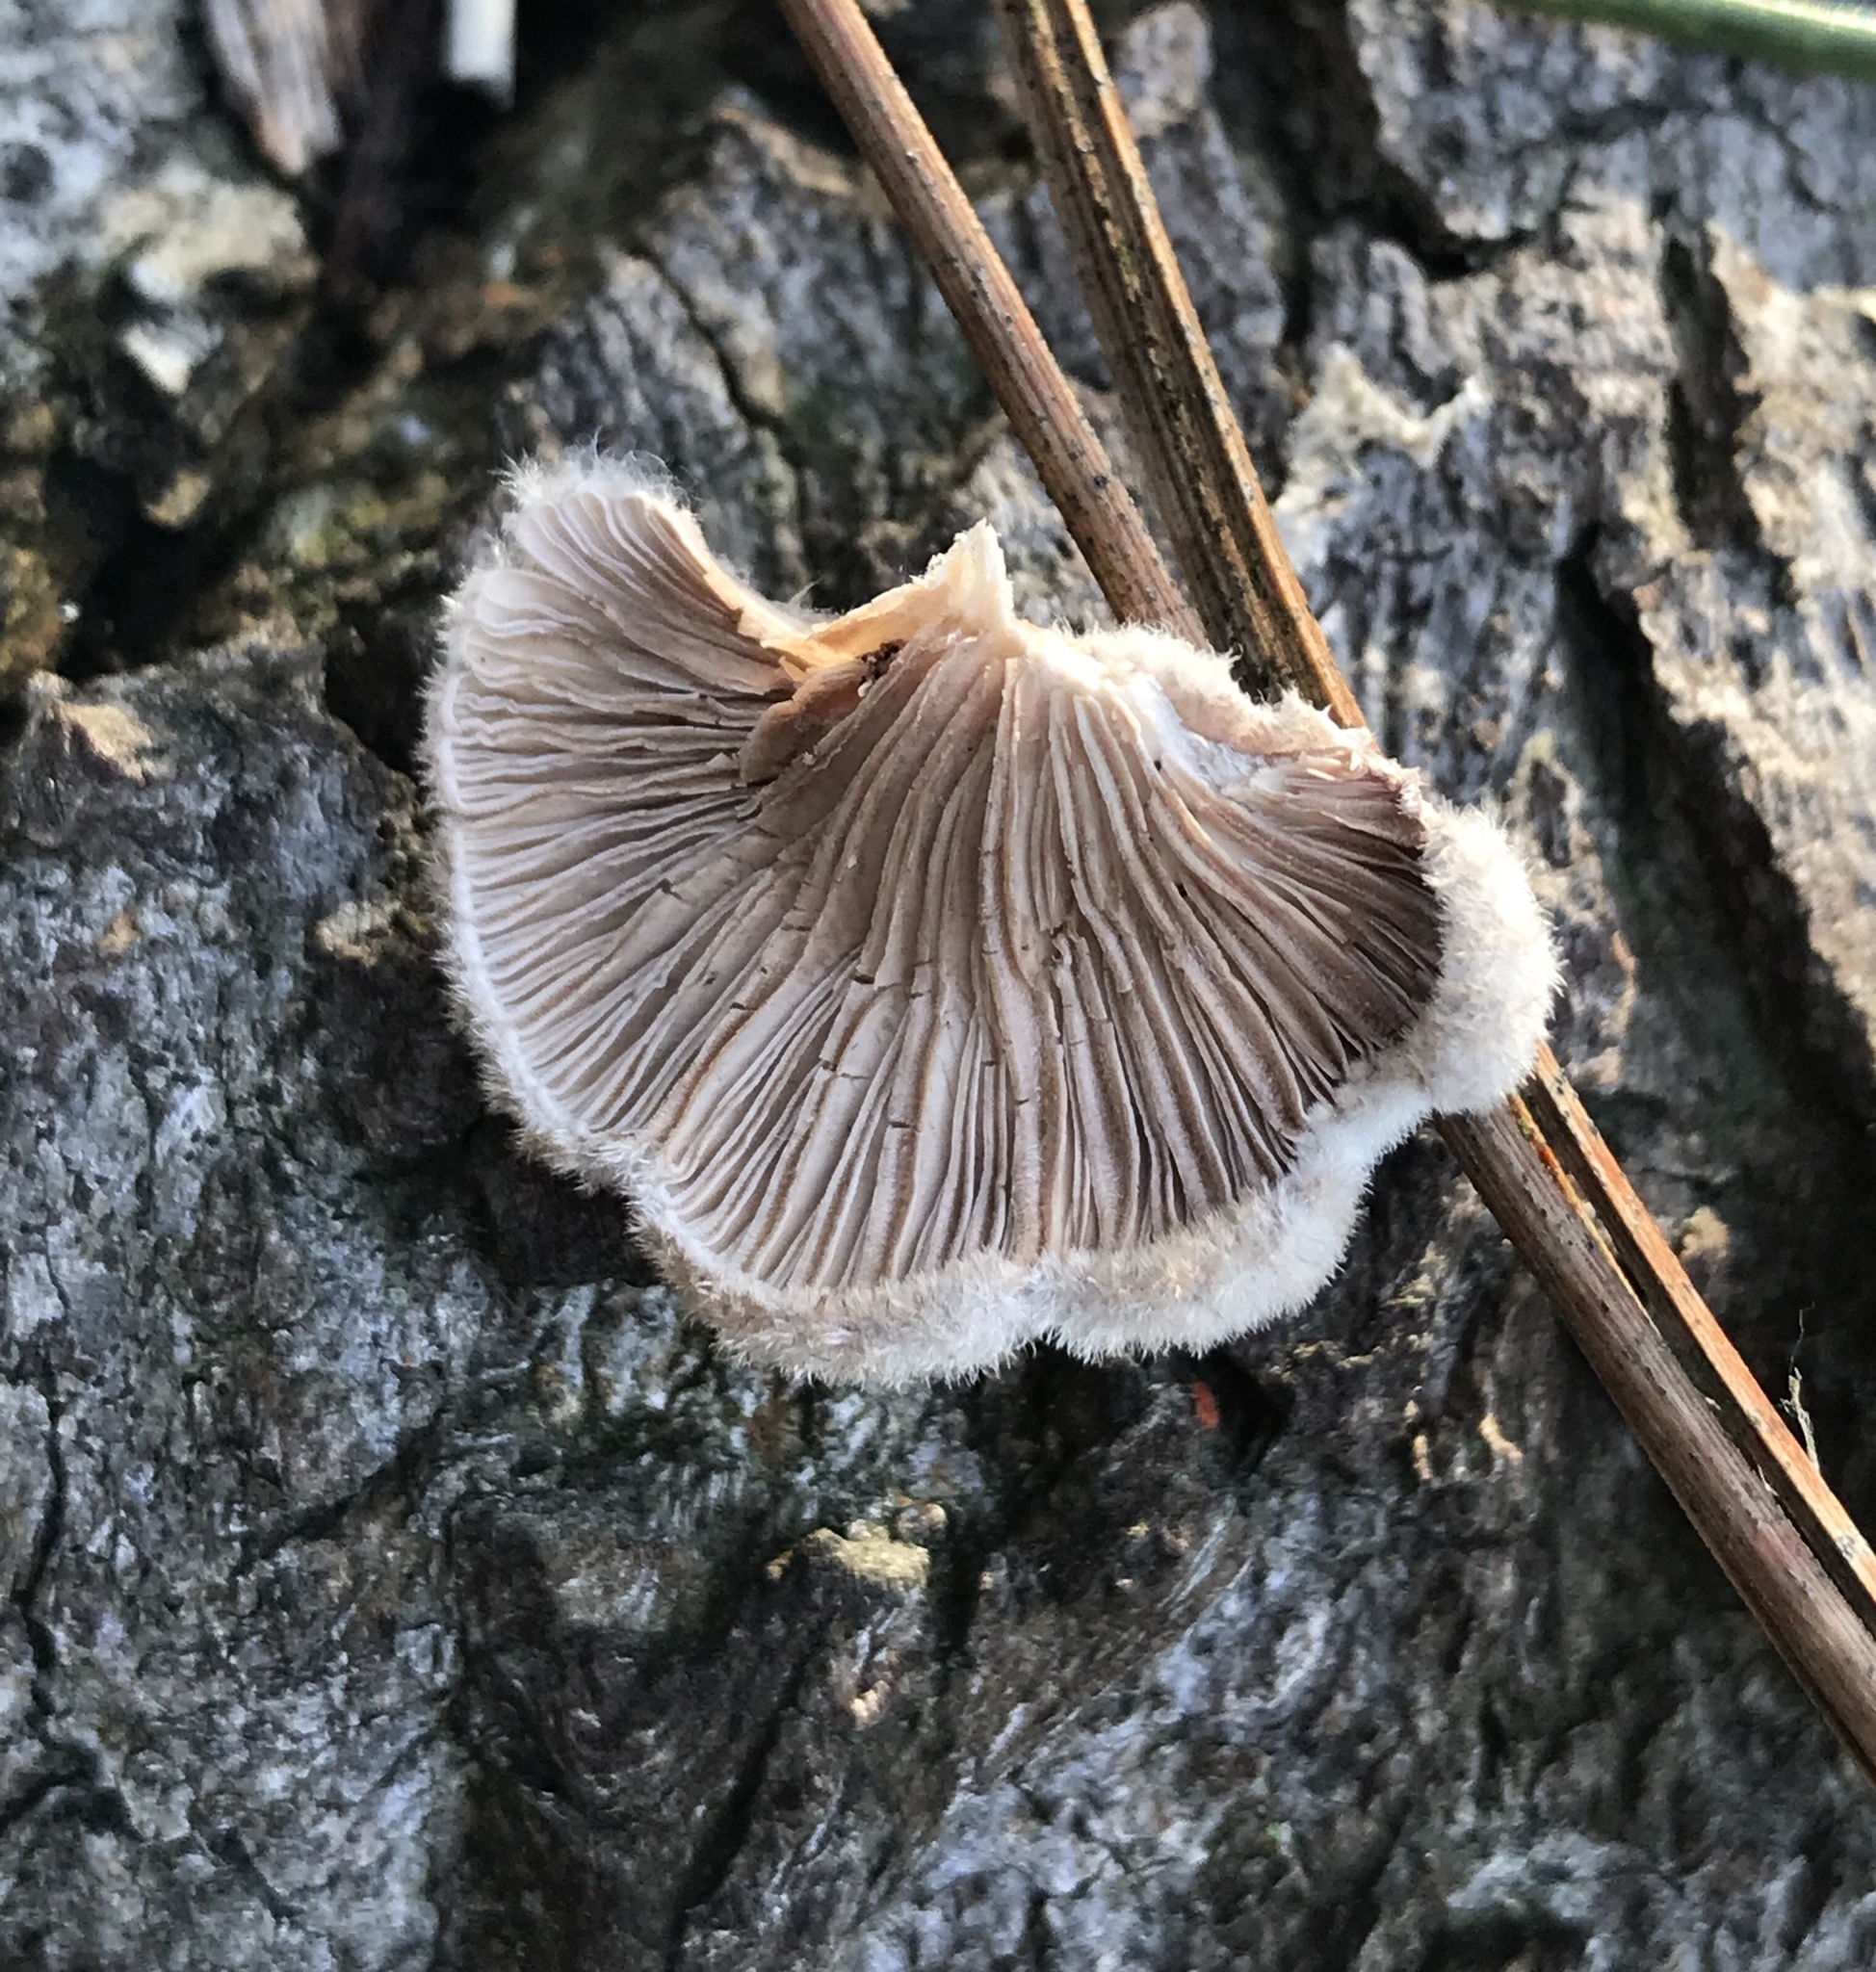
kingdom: Fungi
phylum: Basidiomycota
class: Agaricomycetes
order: Agaricales
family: Schizophyllaceae
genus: Schizophyllum
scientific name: Schizophyllum commune
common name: Common porecrust
